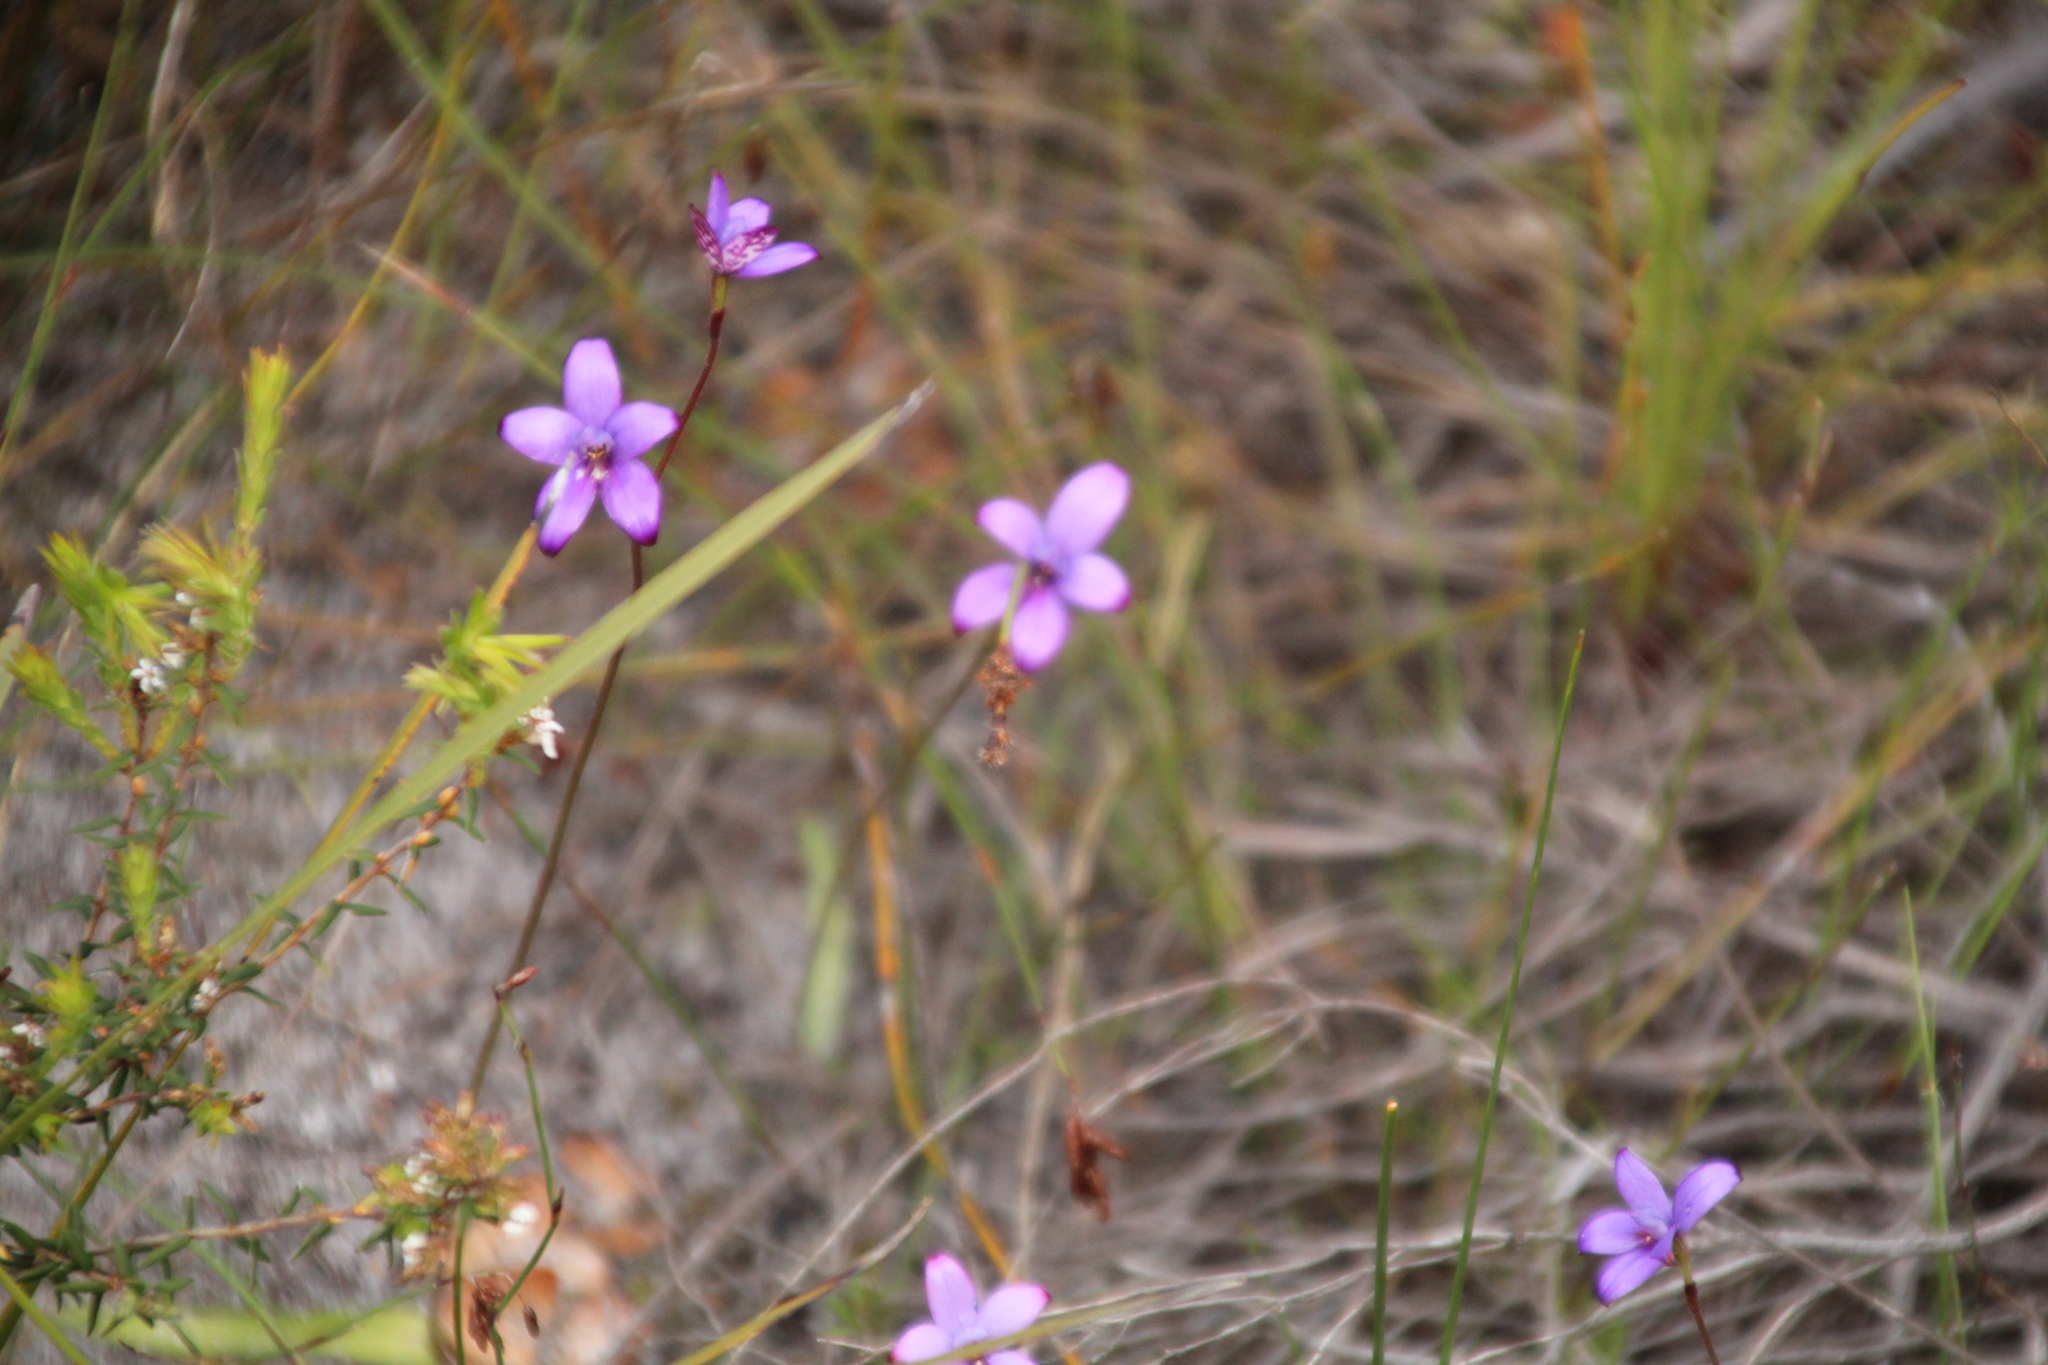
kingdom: Plantae
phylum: Tracheophyta
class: Liliopsida
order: Asparagales
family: Orchidaceae
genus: Caladenia
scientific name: Caladenia brunonis
